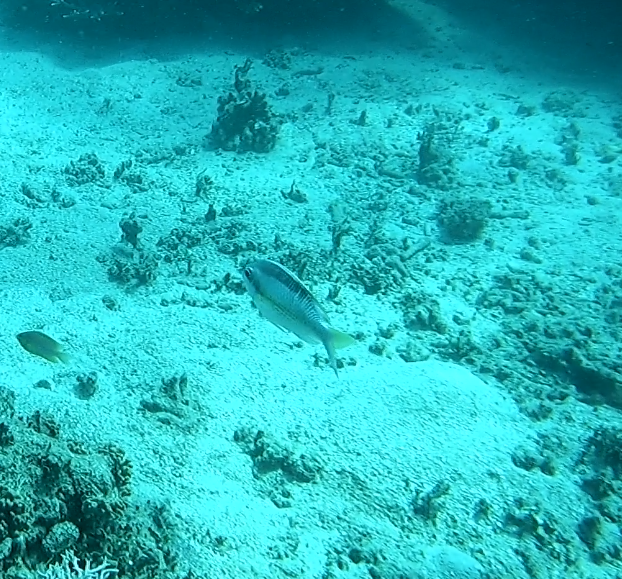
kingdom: Animalia
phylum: Chordata
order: Perciformes
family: Nemipteridae
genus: Scolopsis
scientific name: Scolopsis margaritifera
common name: Pearly monocle bream
